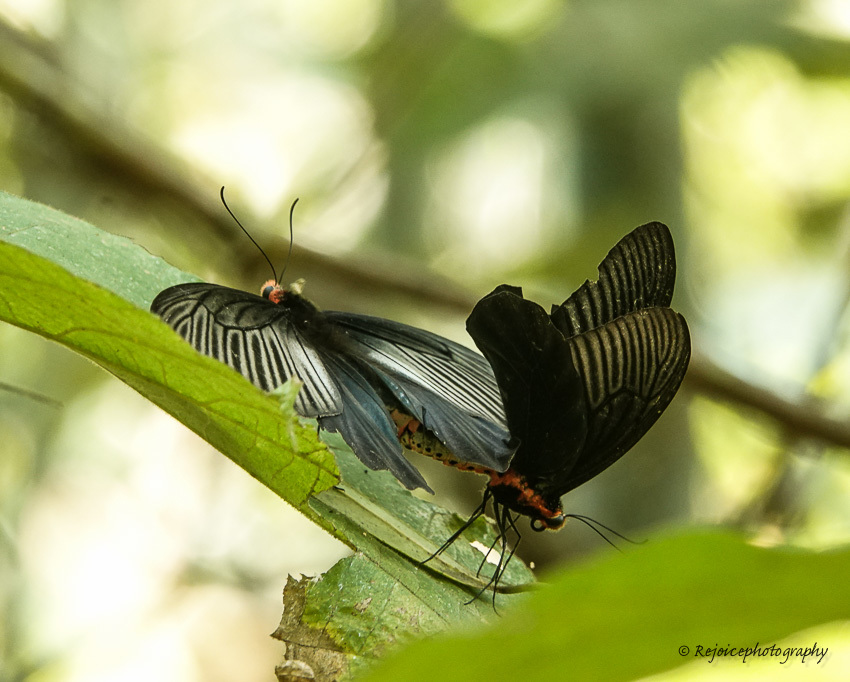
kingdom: Animalia
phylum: Arthropoda
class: Insecta
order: Lepidoptera
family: Papilionidae
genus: Atrophaneura
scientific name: Atrophaneura varuna
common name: Common batwing
